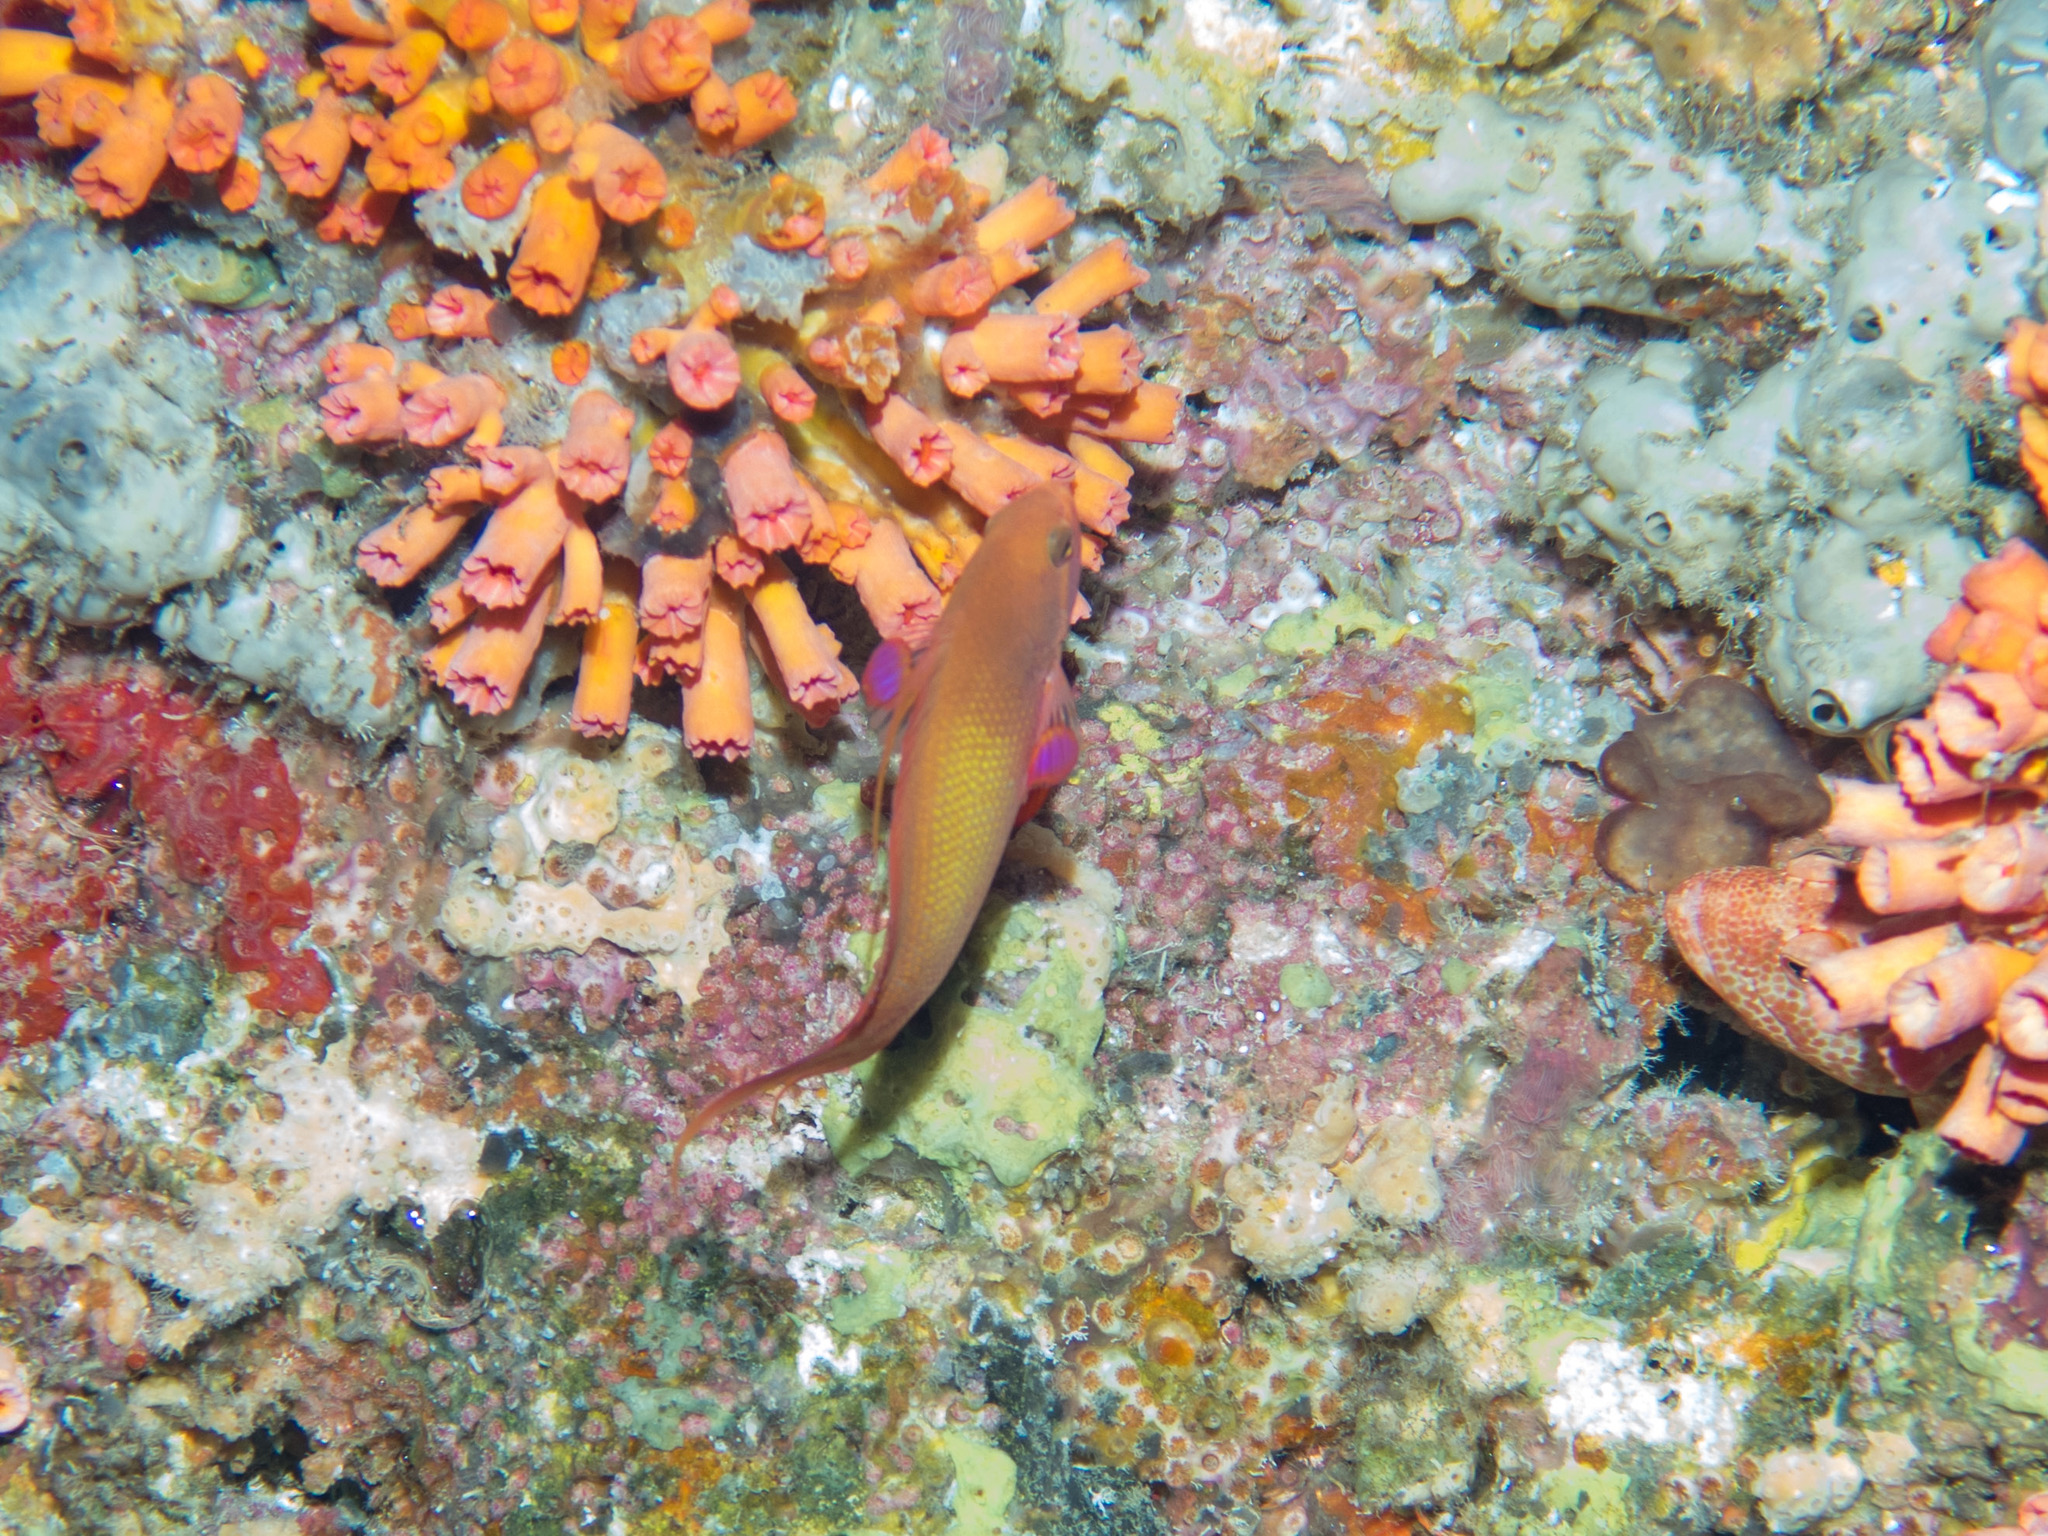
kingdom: Animalia
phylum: Chordata
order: Perciformes
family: Serranidae
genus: Pseudanthias
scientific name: Pseudanthias squamipinnis
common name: Scalefin anthias
